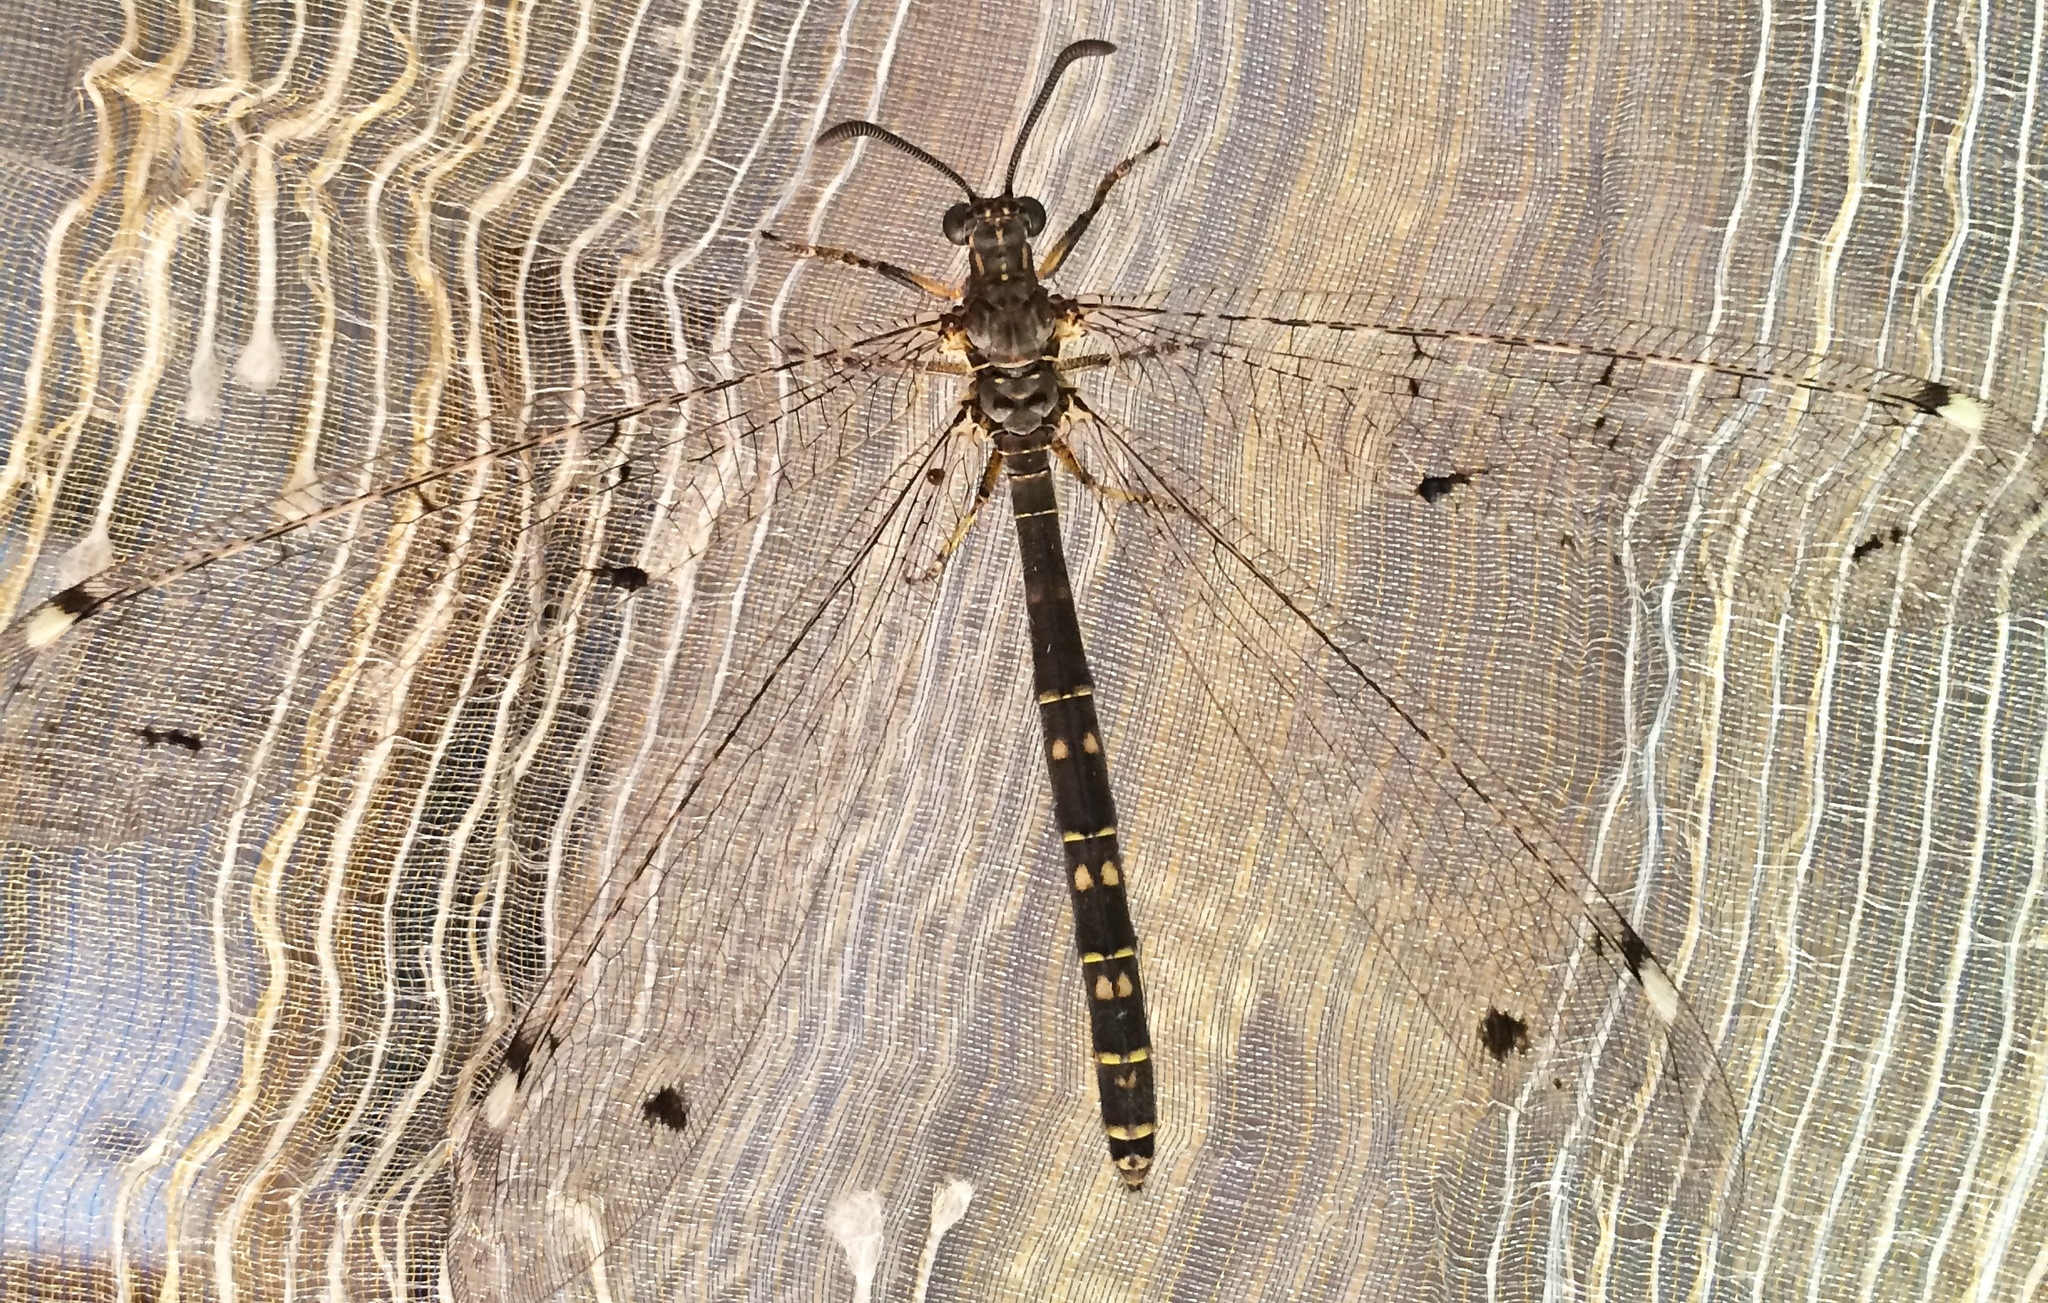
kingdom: Animalia
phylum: Arthropoda
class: Insecta
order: Neuroptera
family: Myrmeleontidae
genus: Distoleon
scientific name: Distoleon tetragrammicus
